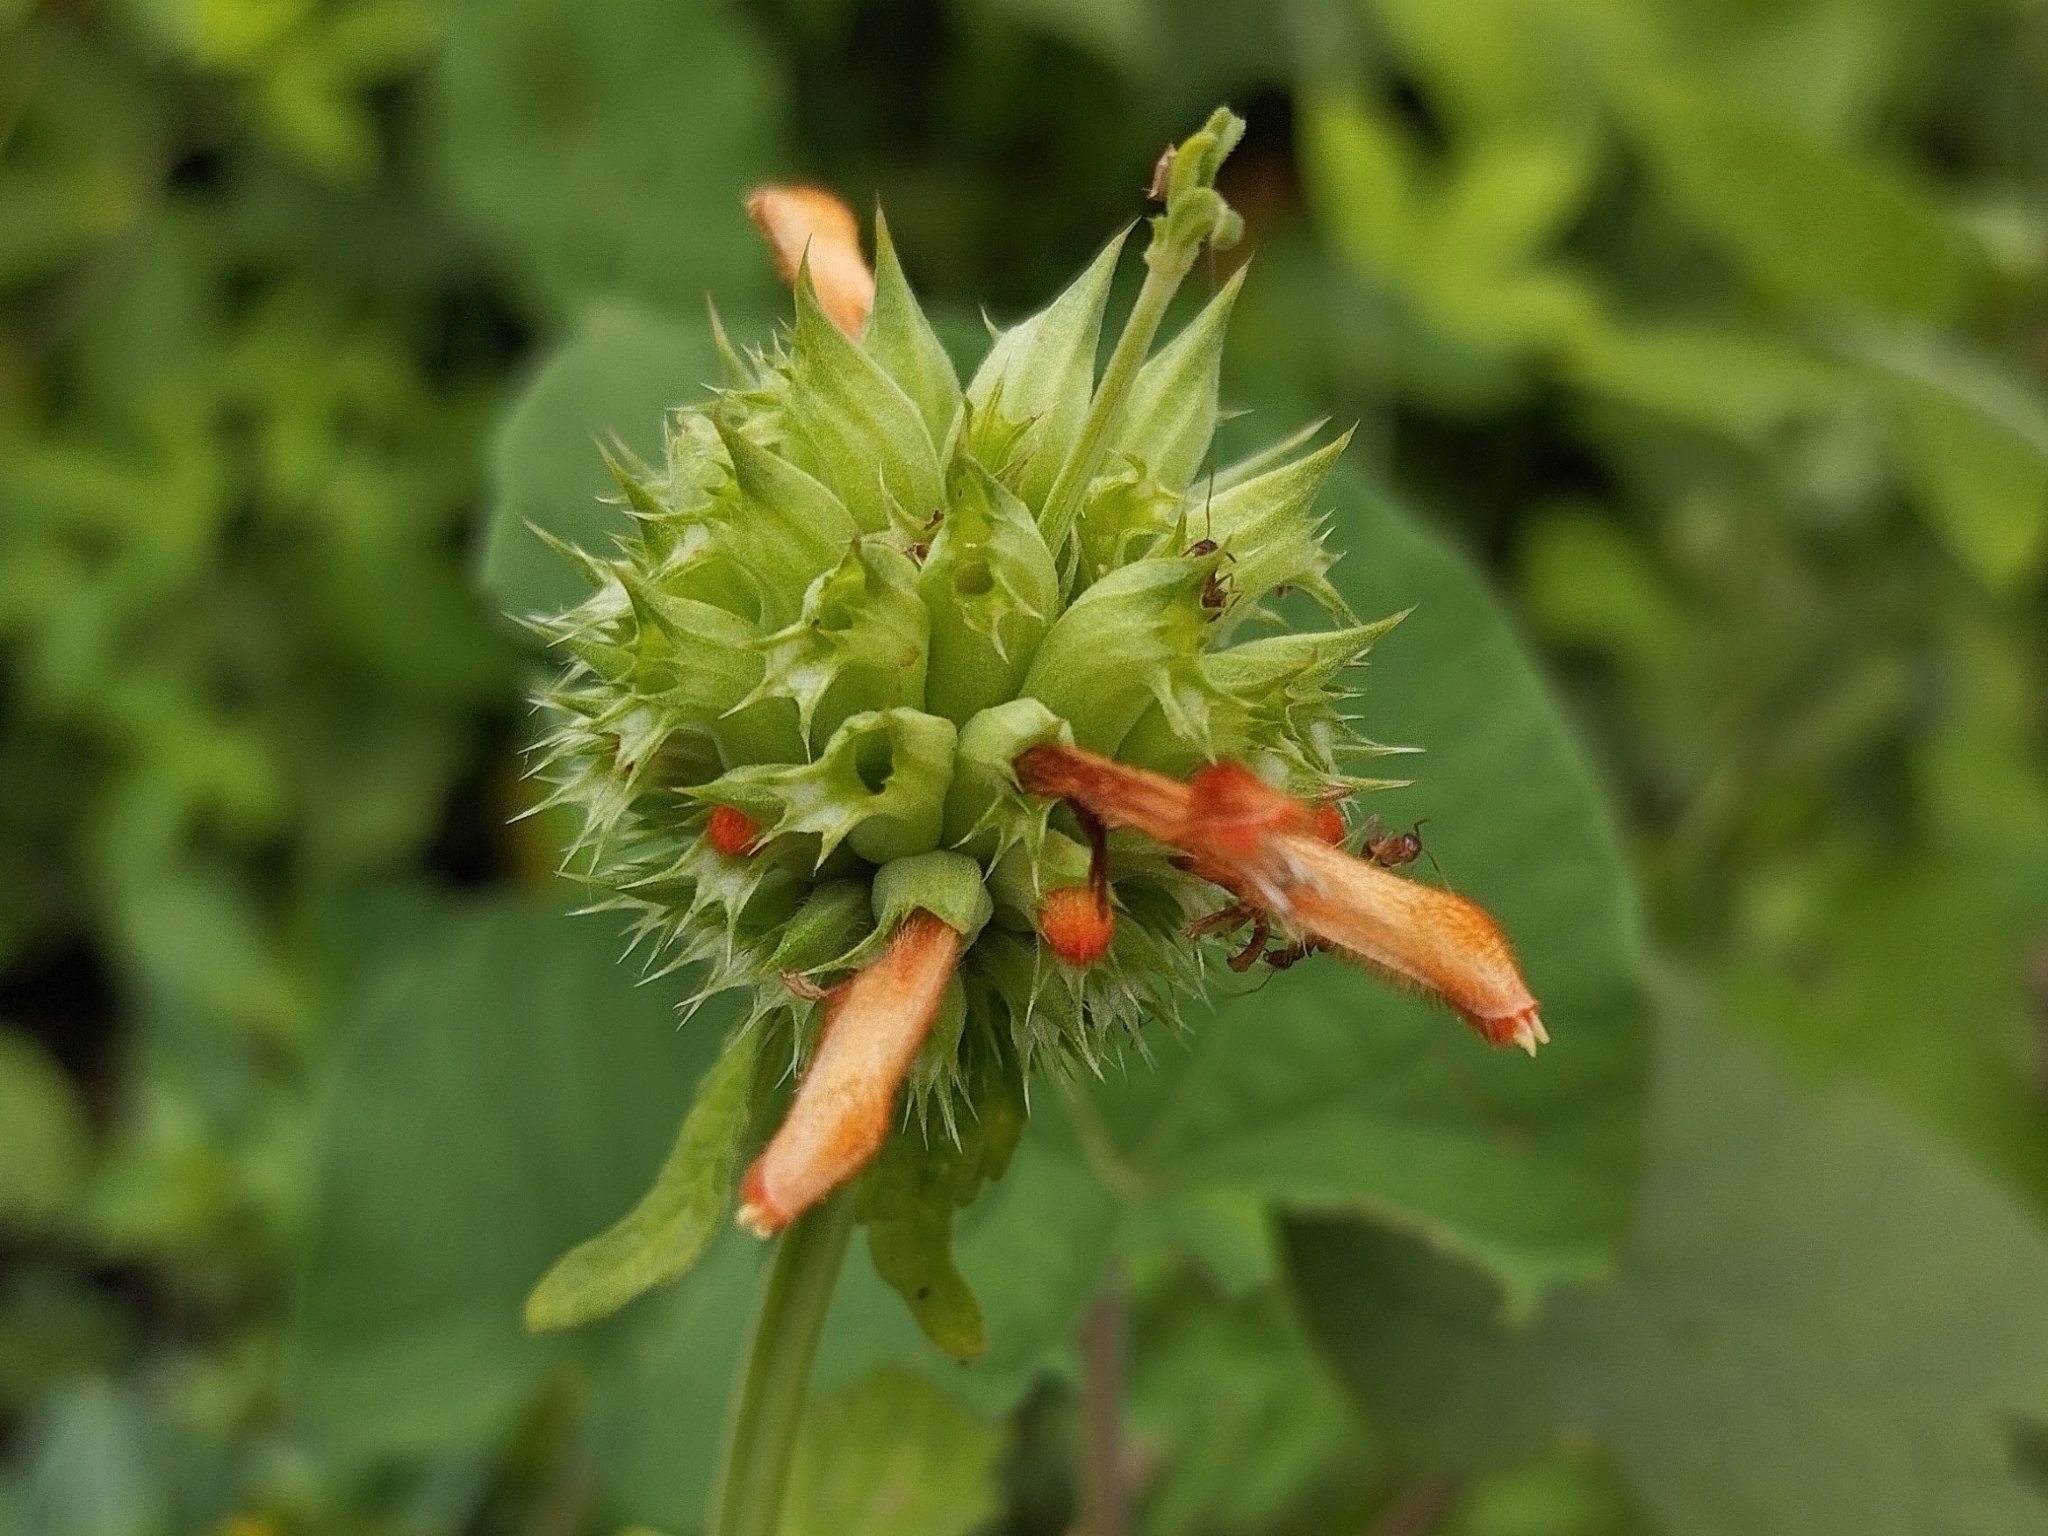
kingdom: Plantae
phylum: Tracheophyta
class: Magnoliopsida
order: Lamiales
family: Lamiaceae
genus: Leonotis
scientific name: Leonotis nepetifolia
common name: Christmas candlestick
